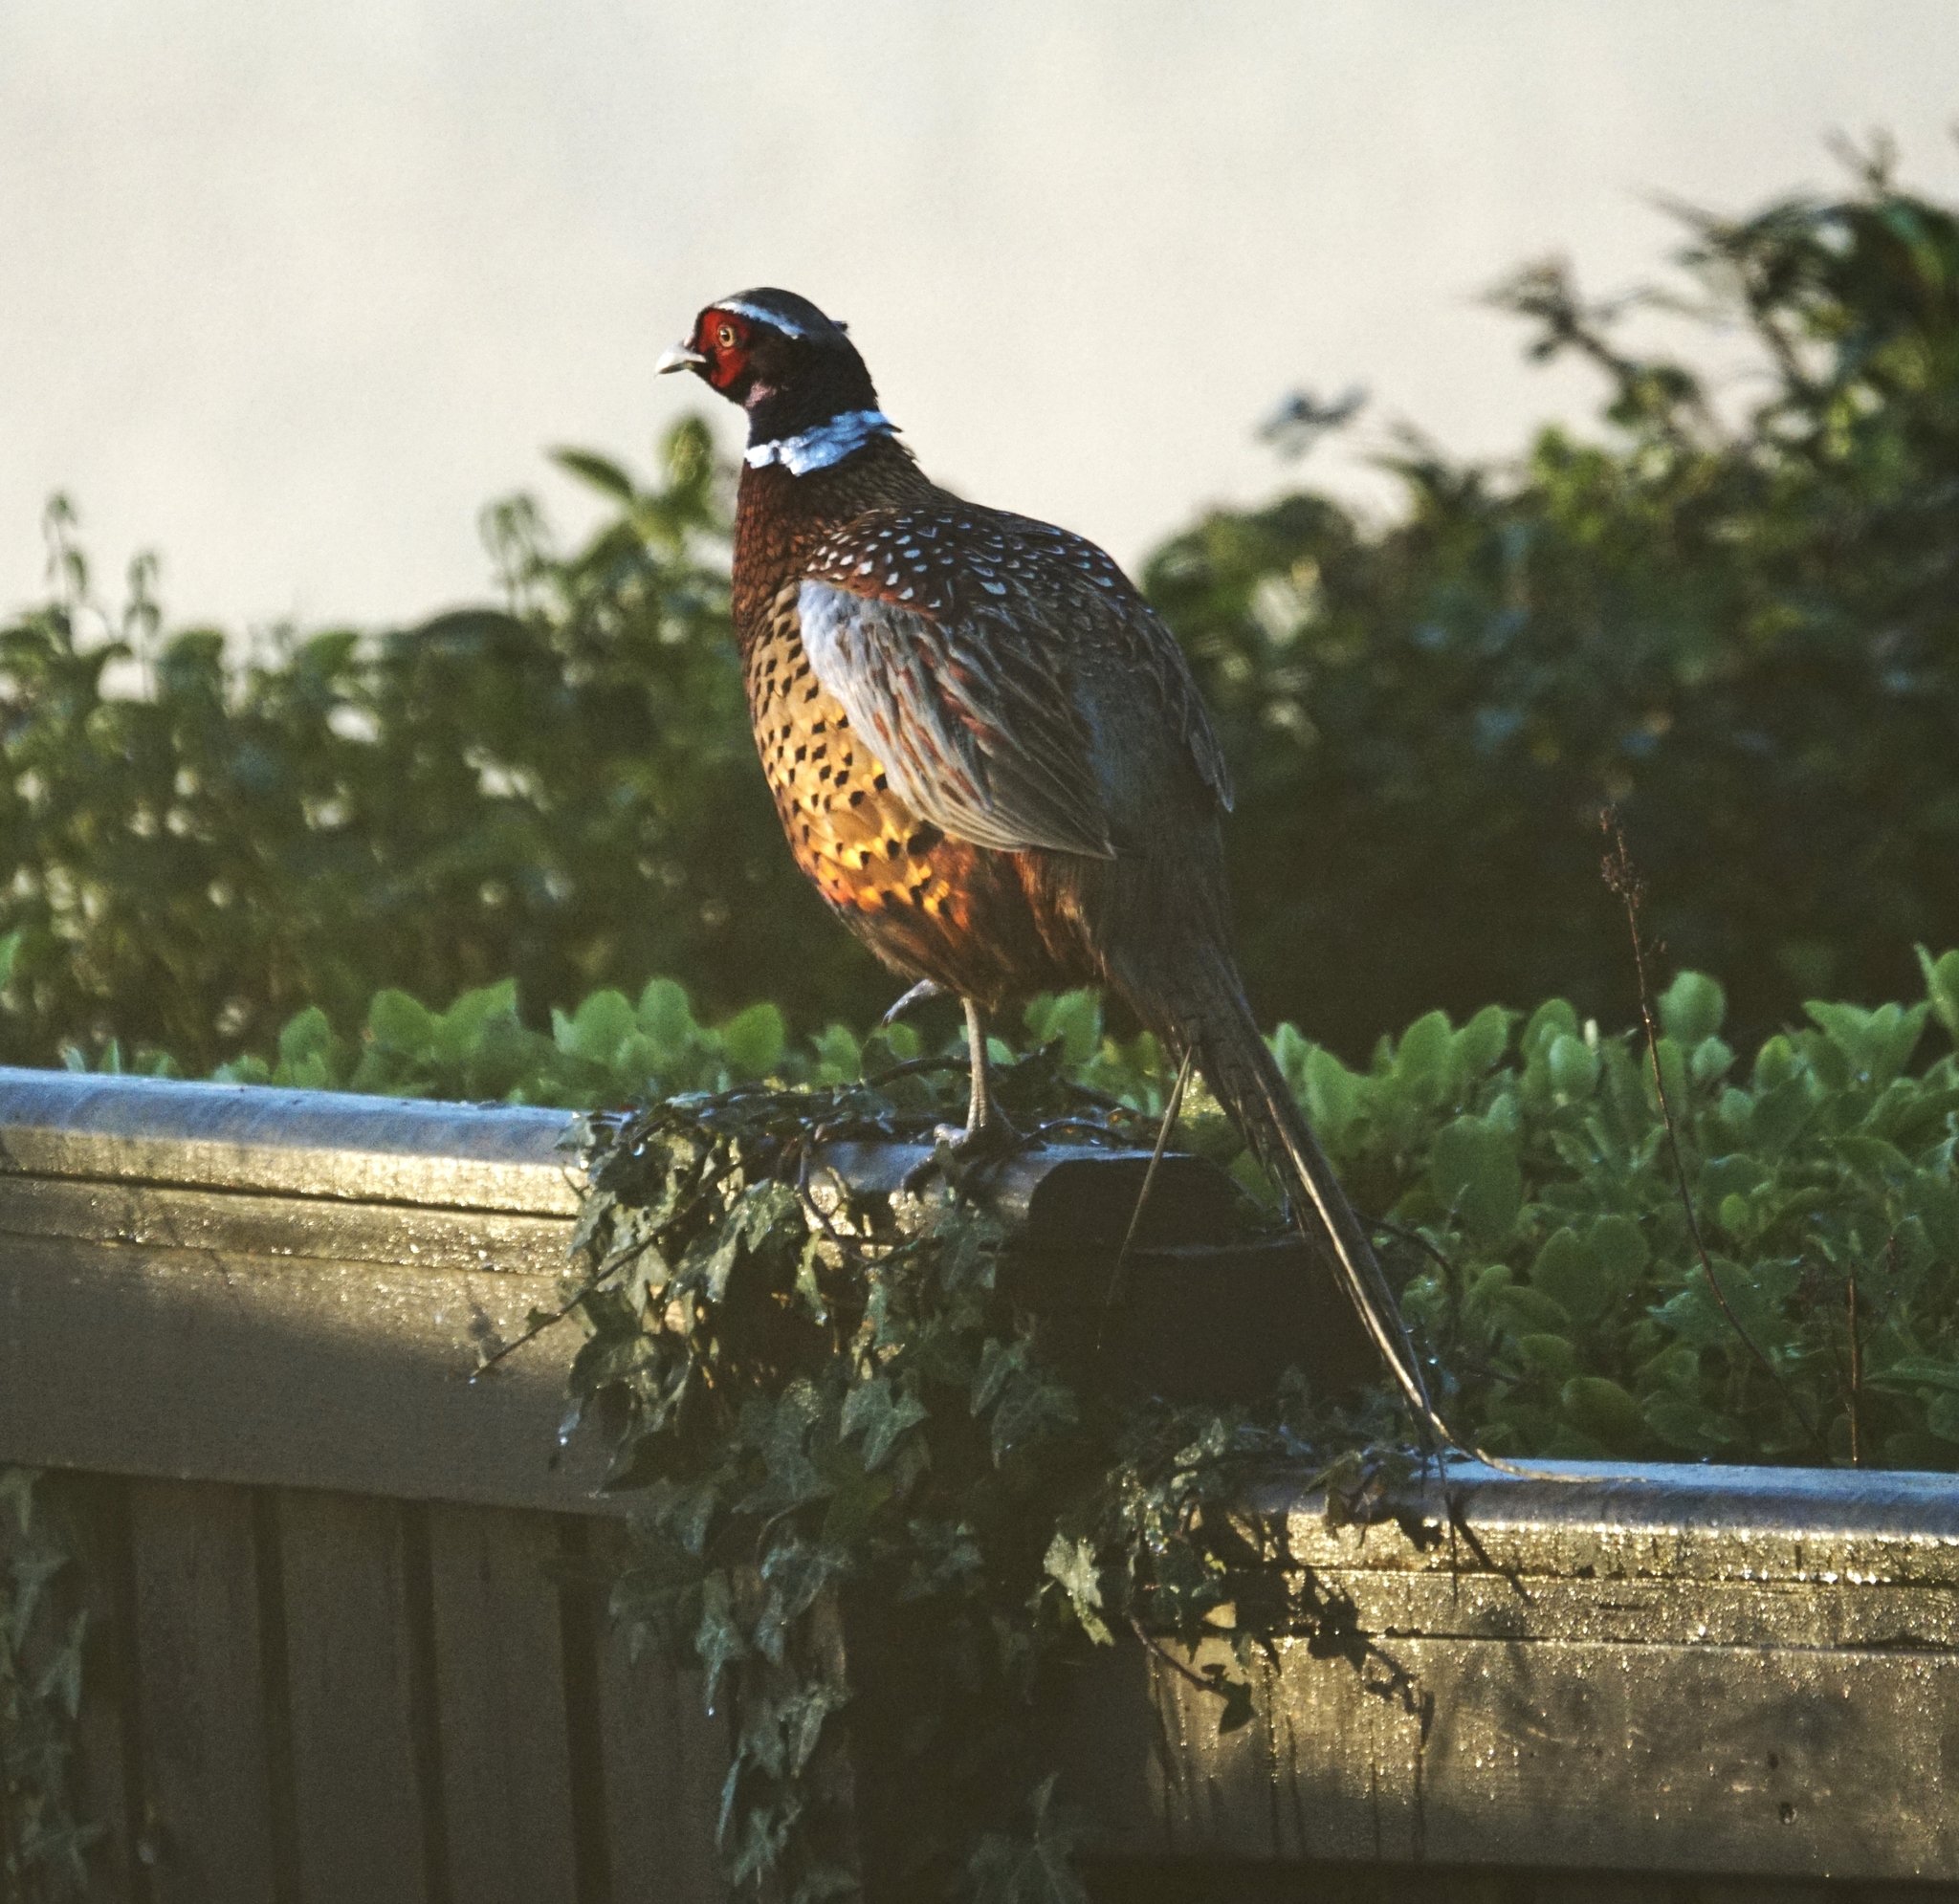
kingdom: Animalia
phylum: Chordata
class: Aves
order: Galliformes
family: Phasianidae
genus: Phasianus
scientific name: Phasianus colchicus
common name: Common pheasant
